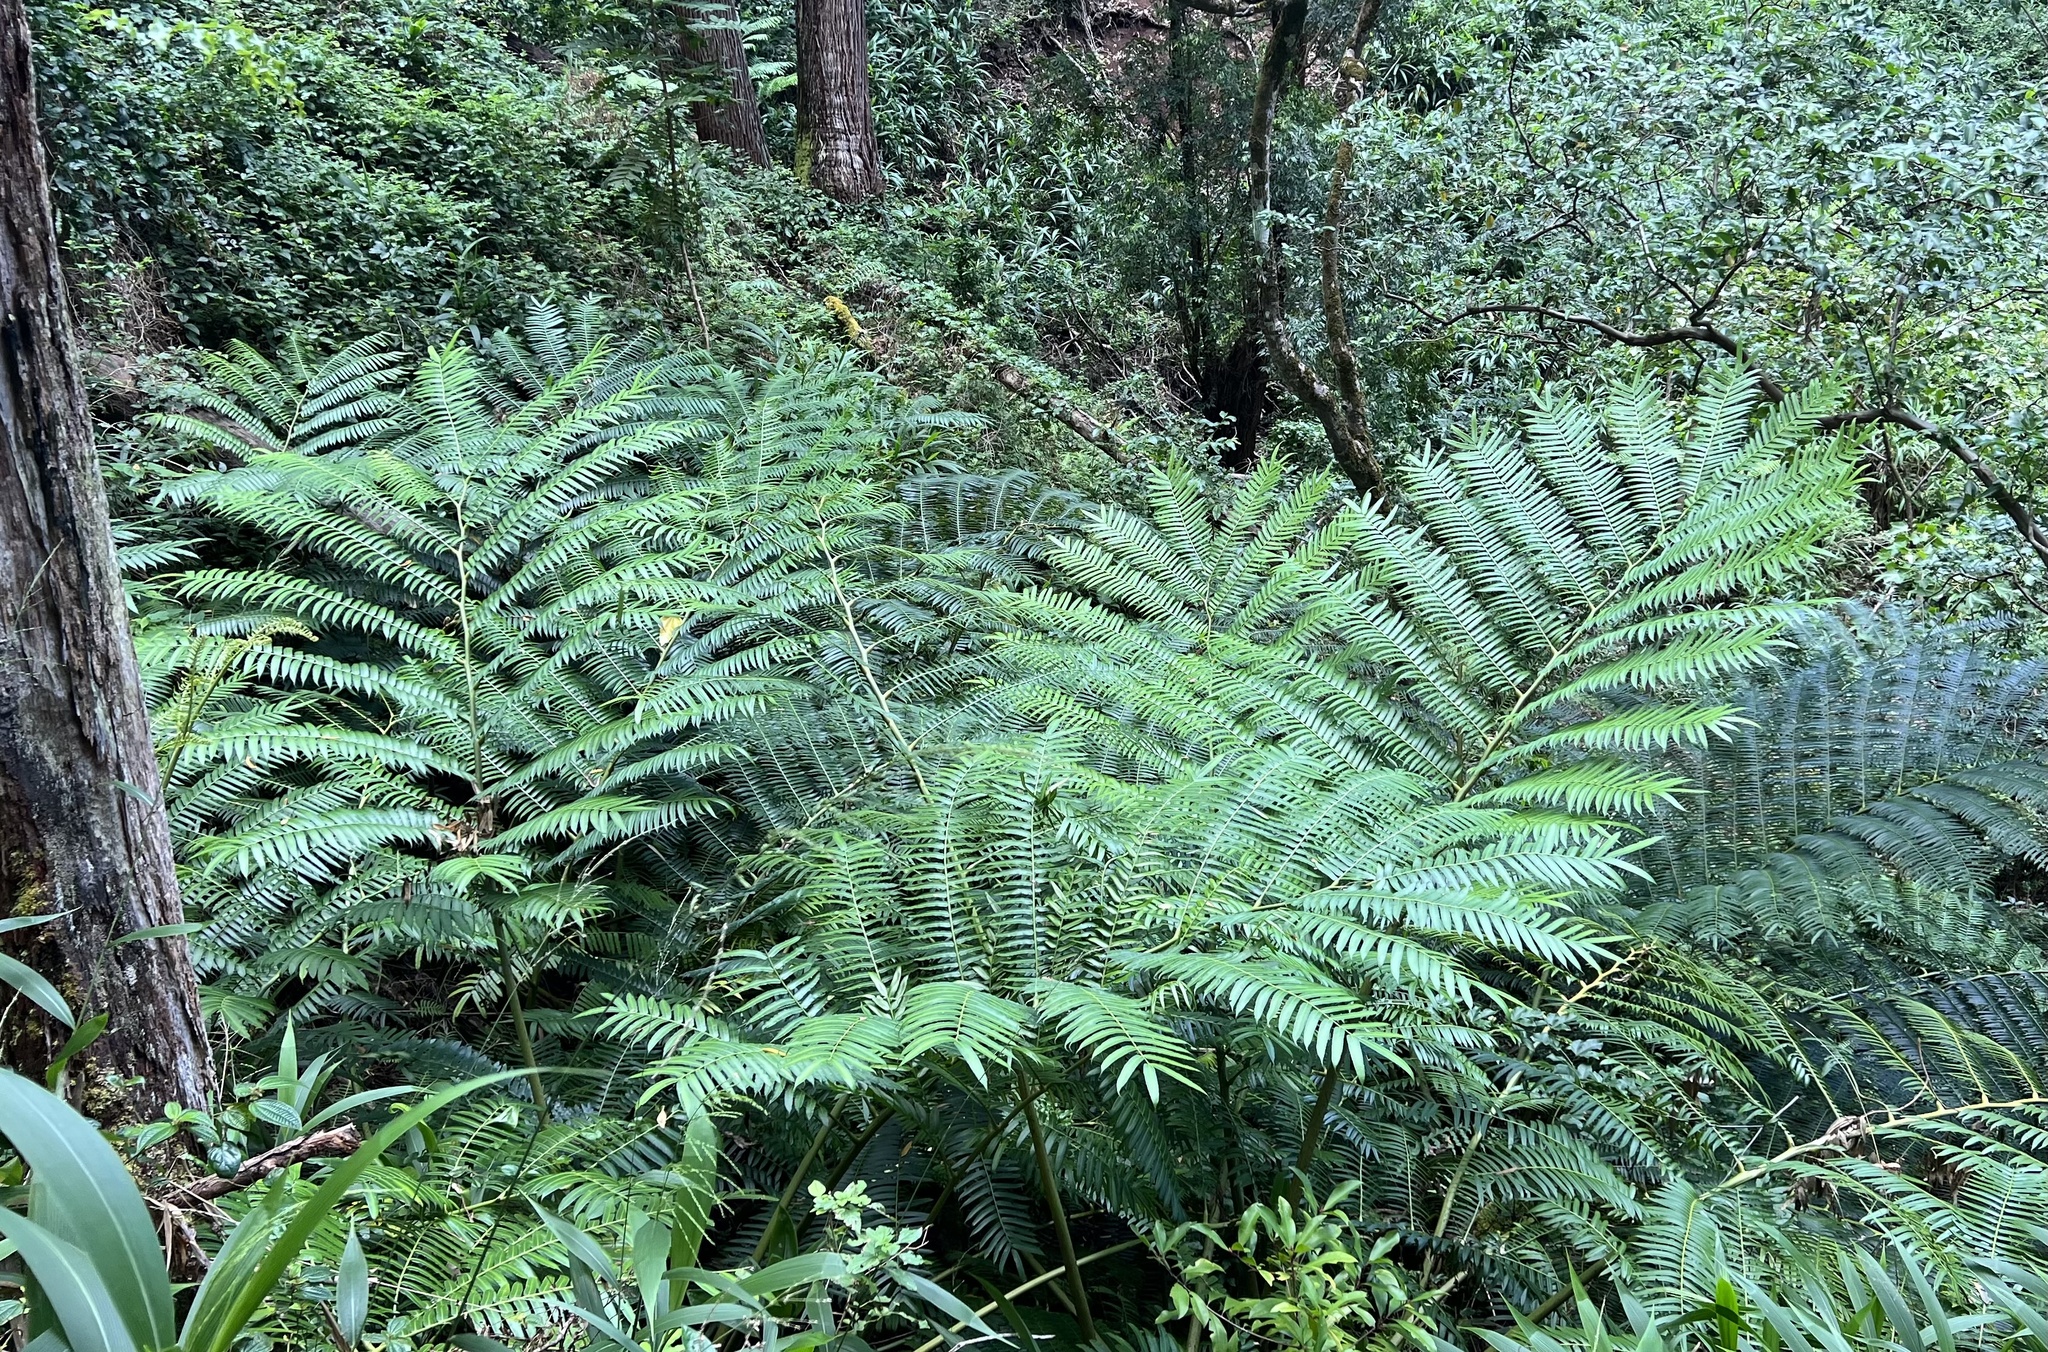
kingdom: Plantae
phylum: Tracheophyta
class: Polypodiopsida
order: Marattiales
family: Marattiaceae
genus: Angiopteris
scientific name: Angiopteris evecta
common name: Mule's-foot fern
